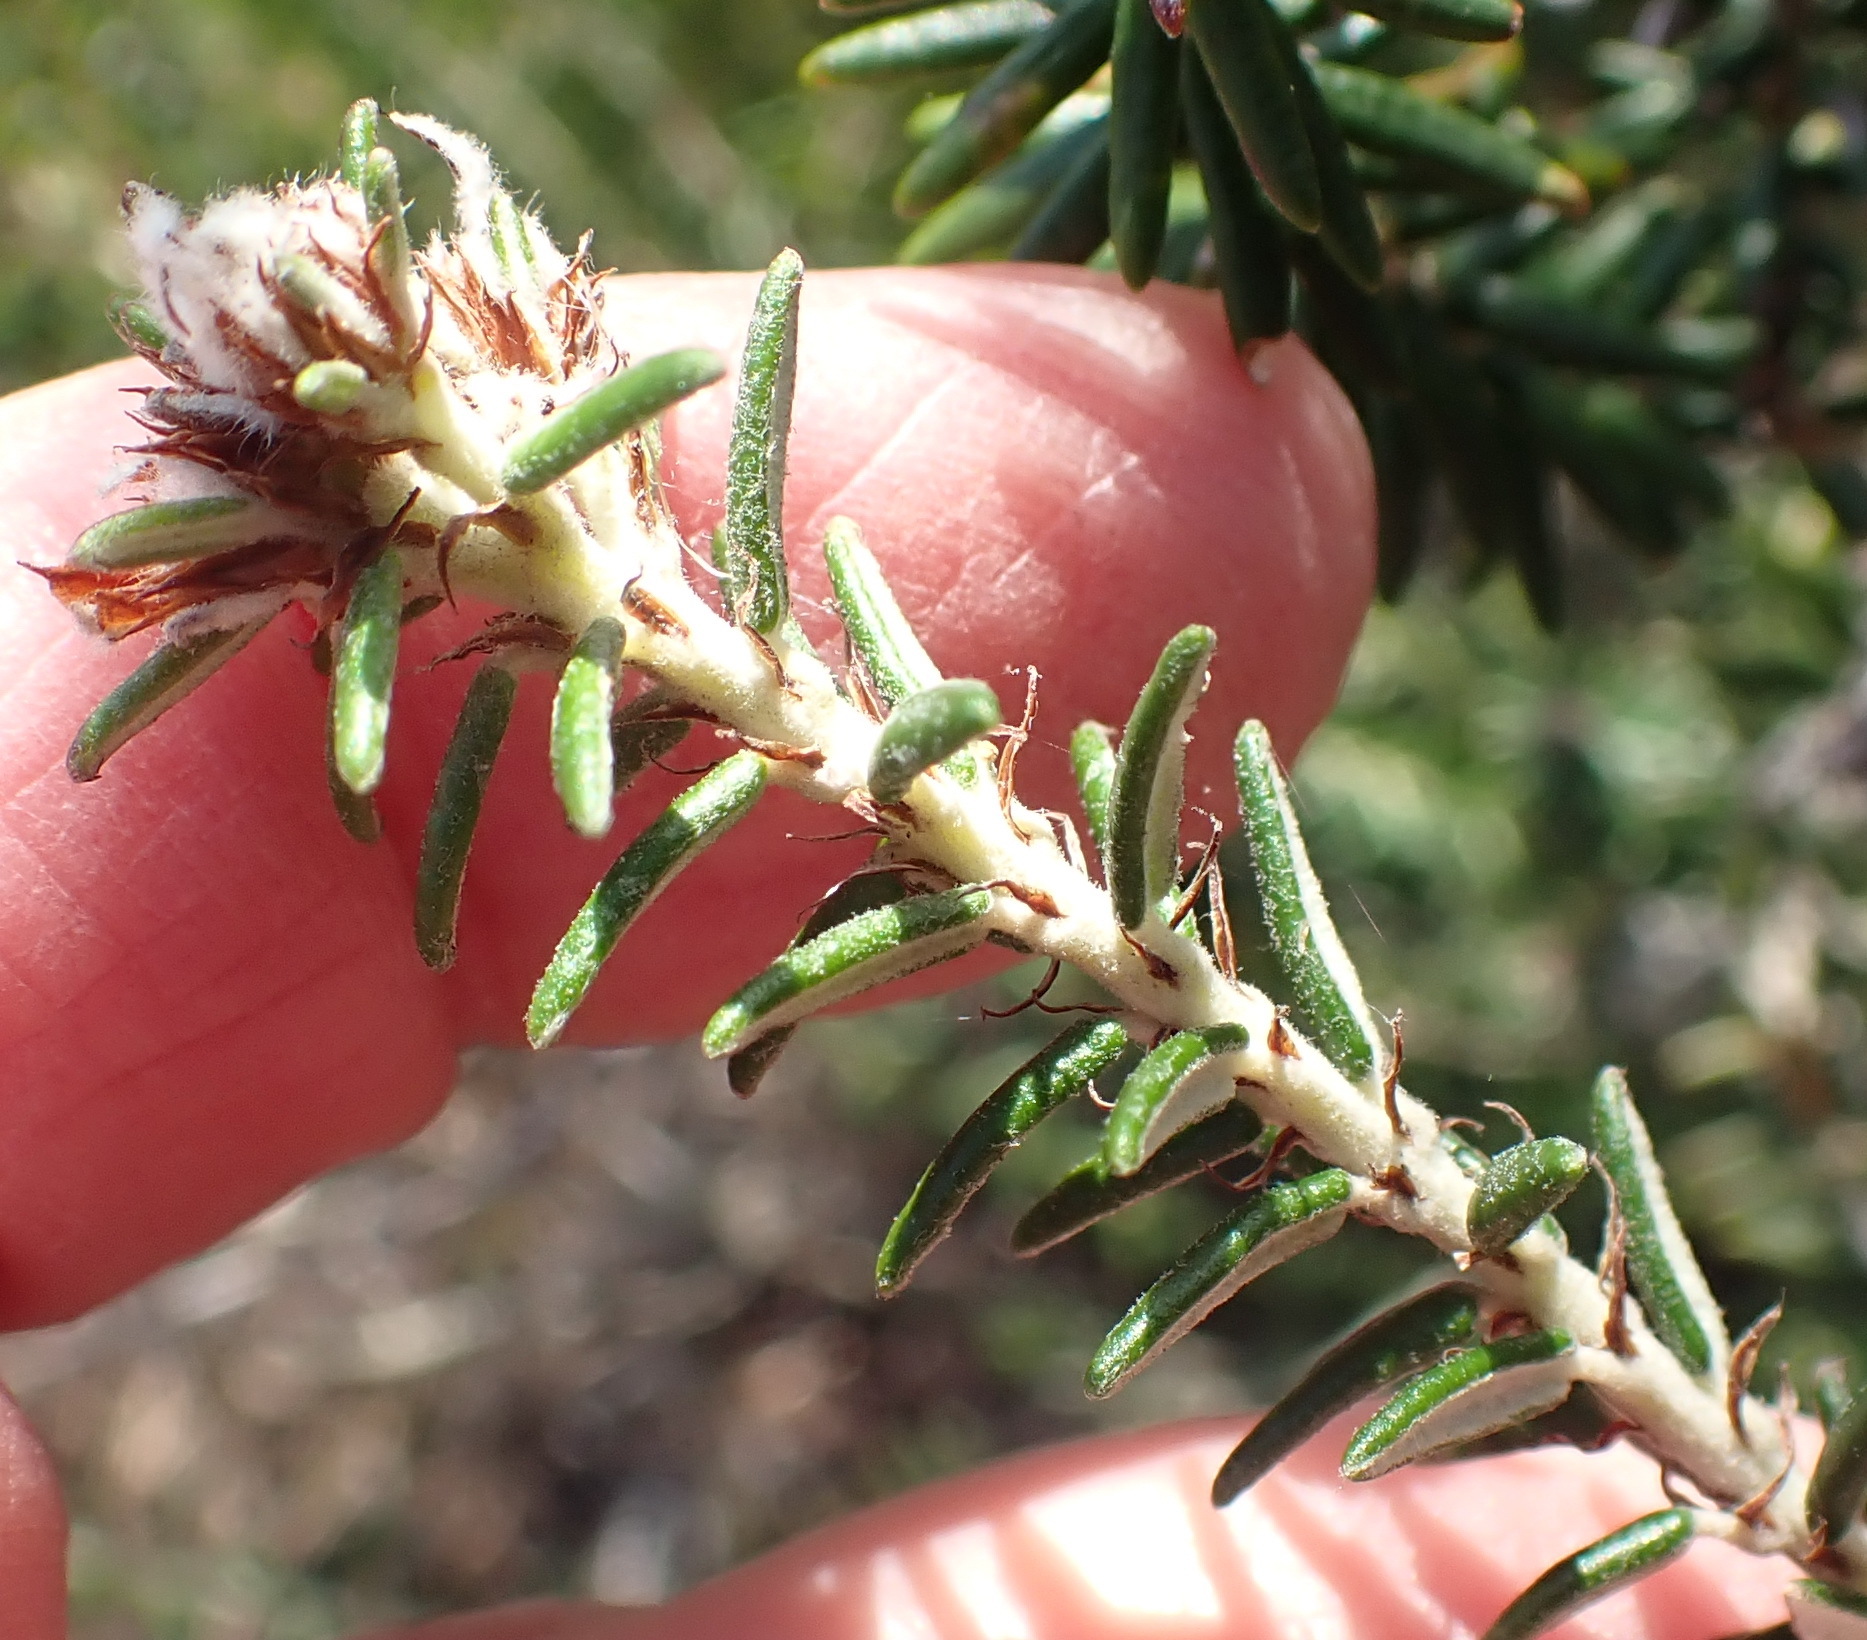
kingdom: Plantae
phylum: Tracheophyta
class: Magnoliopsida
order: Rosales
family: Rhamnaceae
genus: Trichocephalus
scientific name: Trichocephalus stipularis
